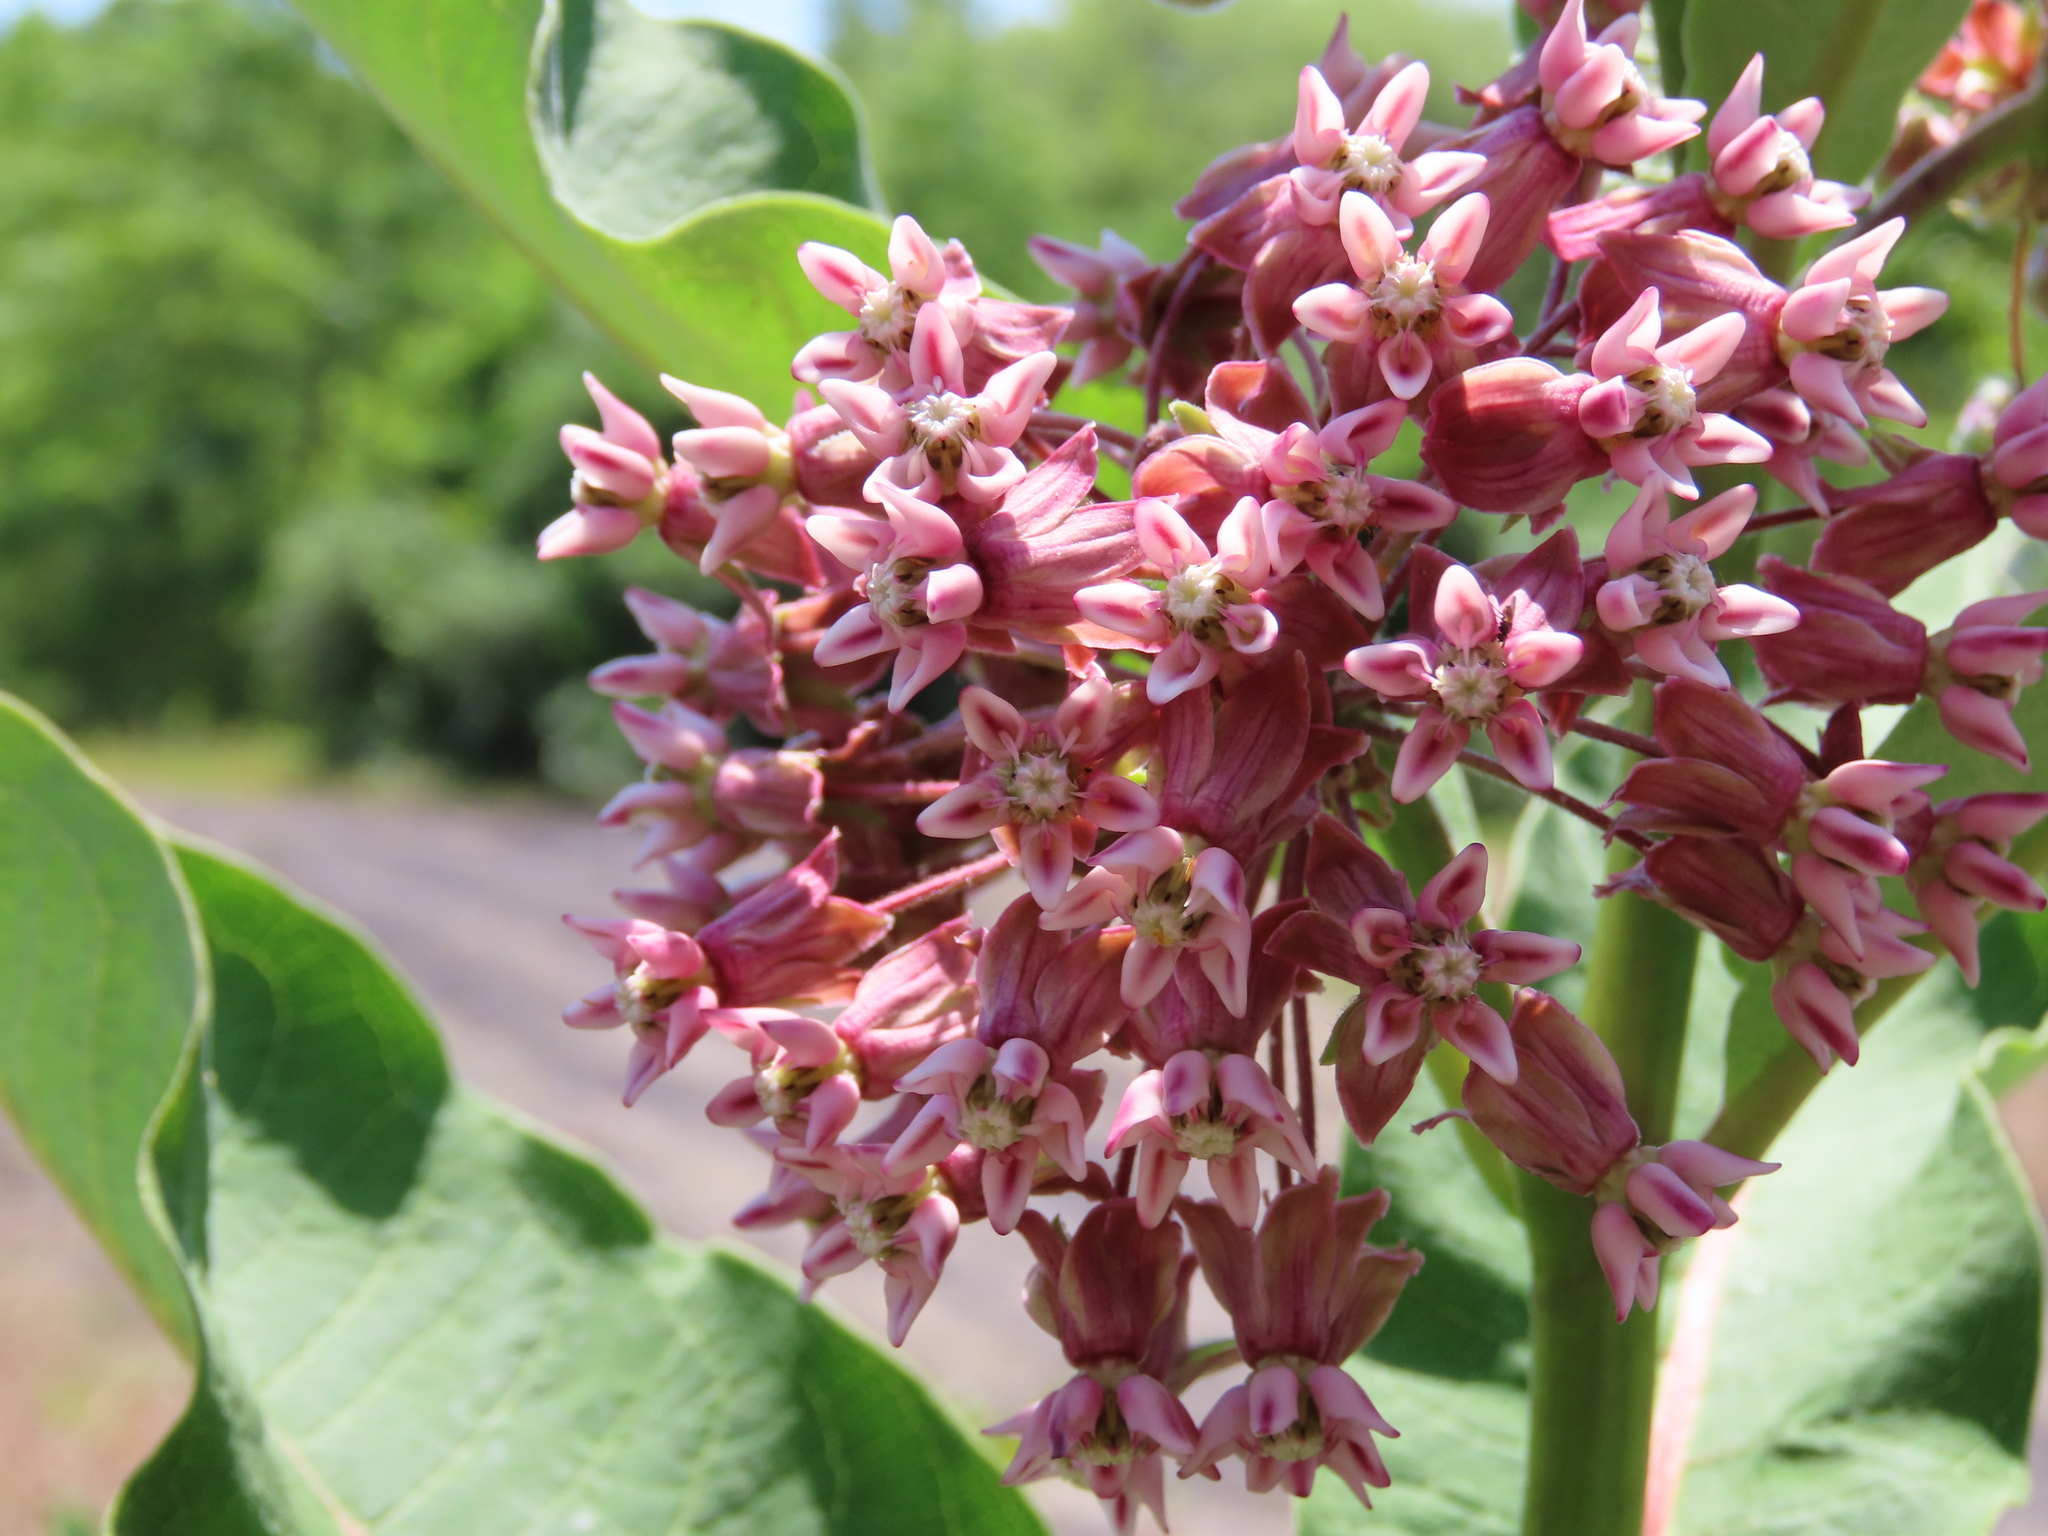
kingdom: Plantae
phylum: Tracheophyta
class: Magnoliopsida
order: Gentianales
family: Apocynaceae
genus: Asclepias
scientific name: Asclepias syriaca
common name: Common milkweed
